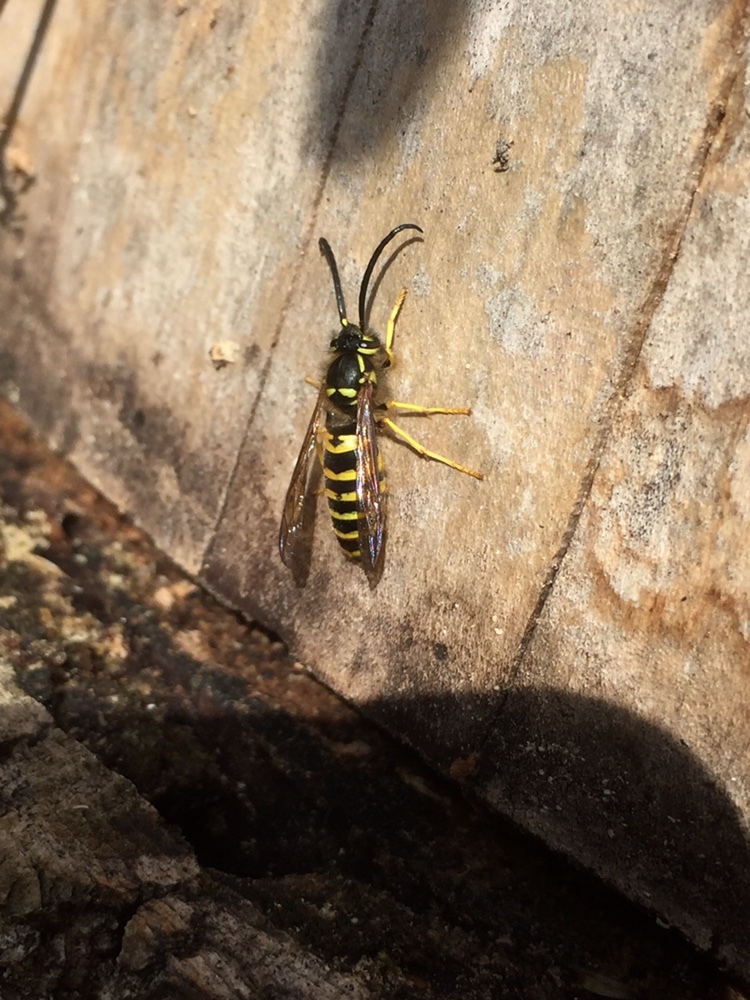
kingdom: Animalia
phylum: Arthropoda
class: Insecta
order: Hymenoptera
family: Vespidae
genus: Vespula
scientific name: Vespula maculifrons
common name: Eastern yellowjacket
